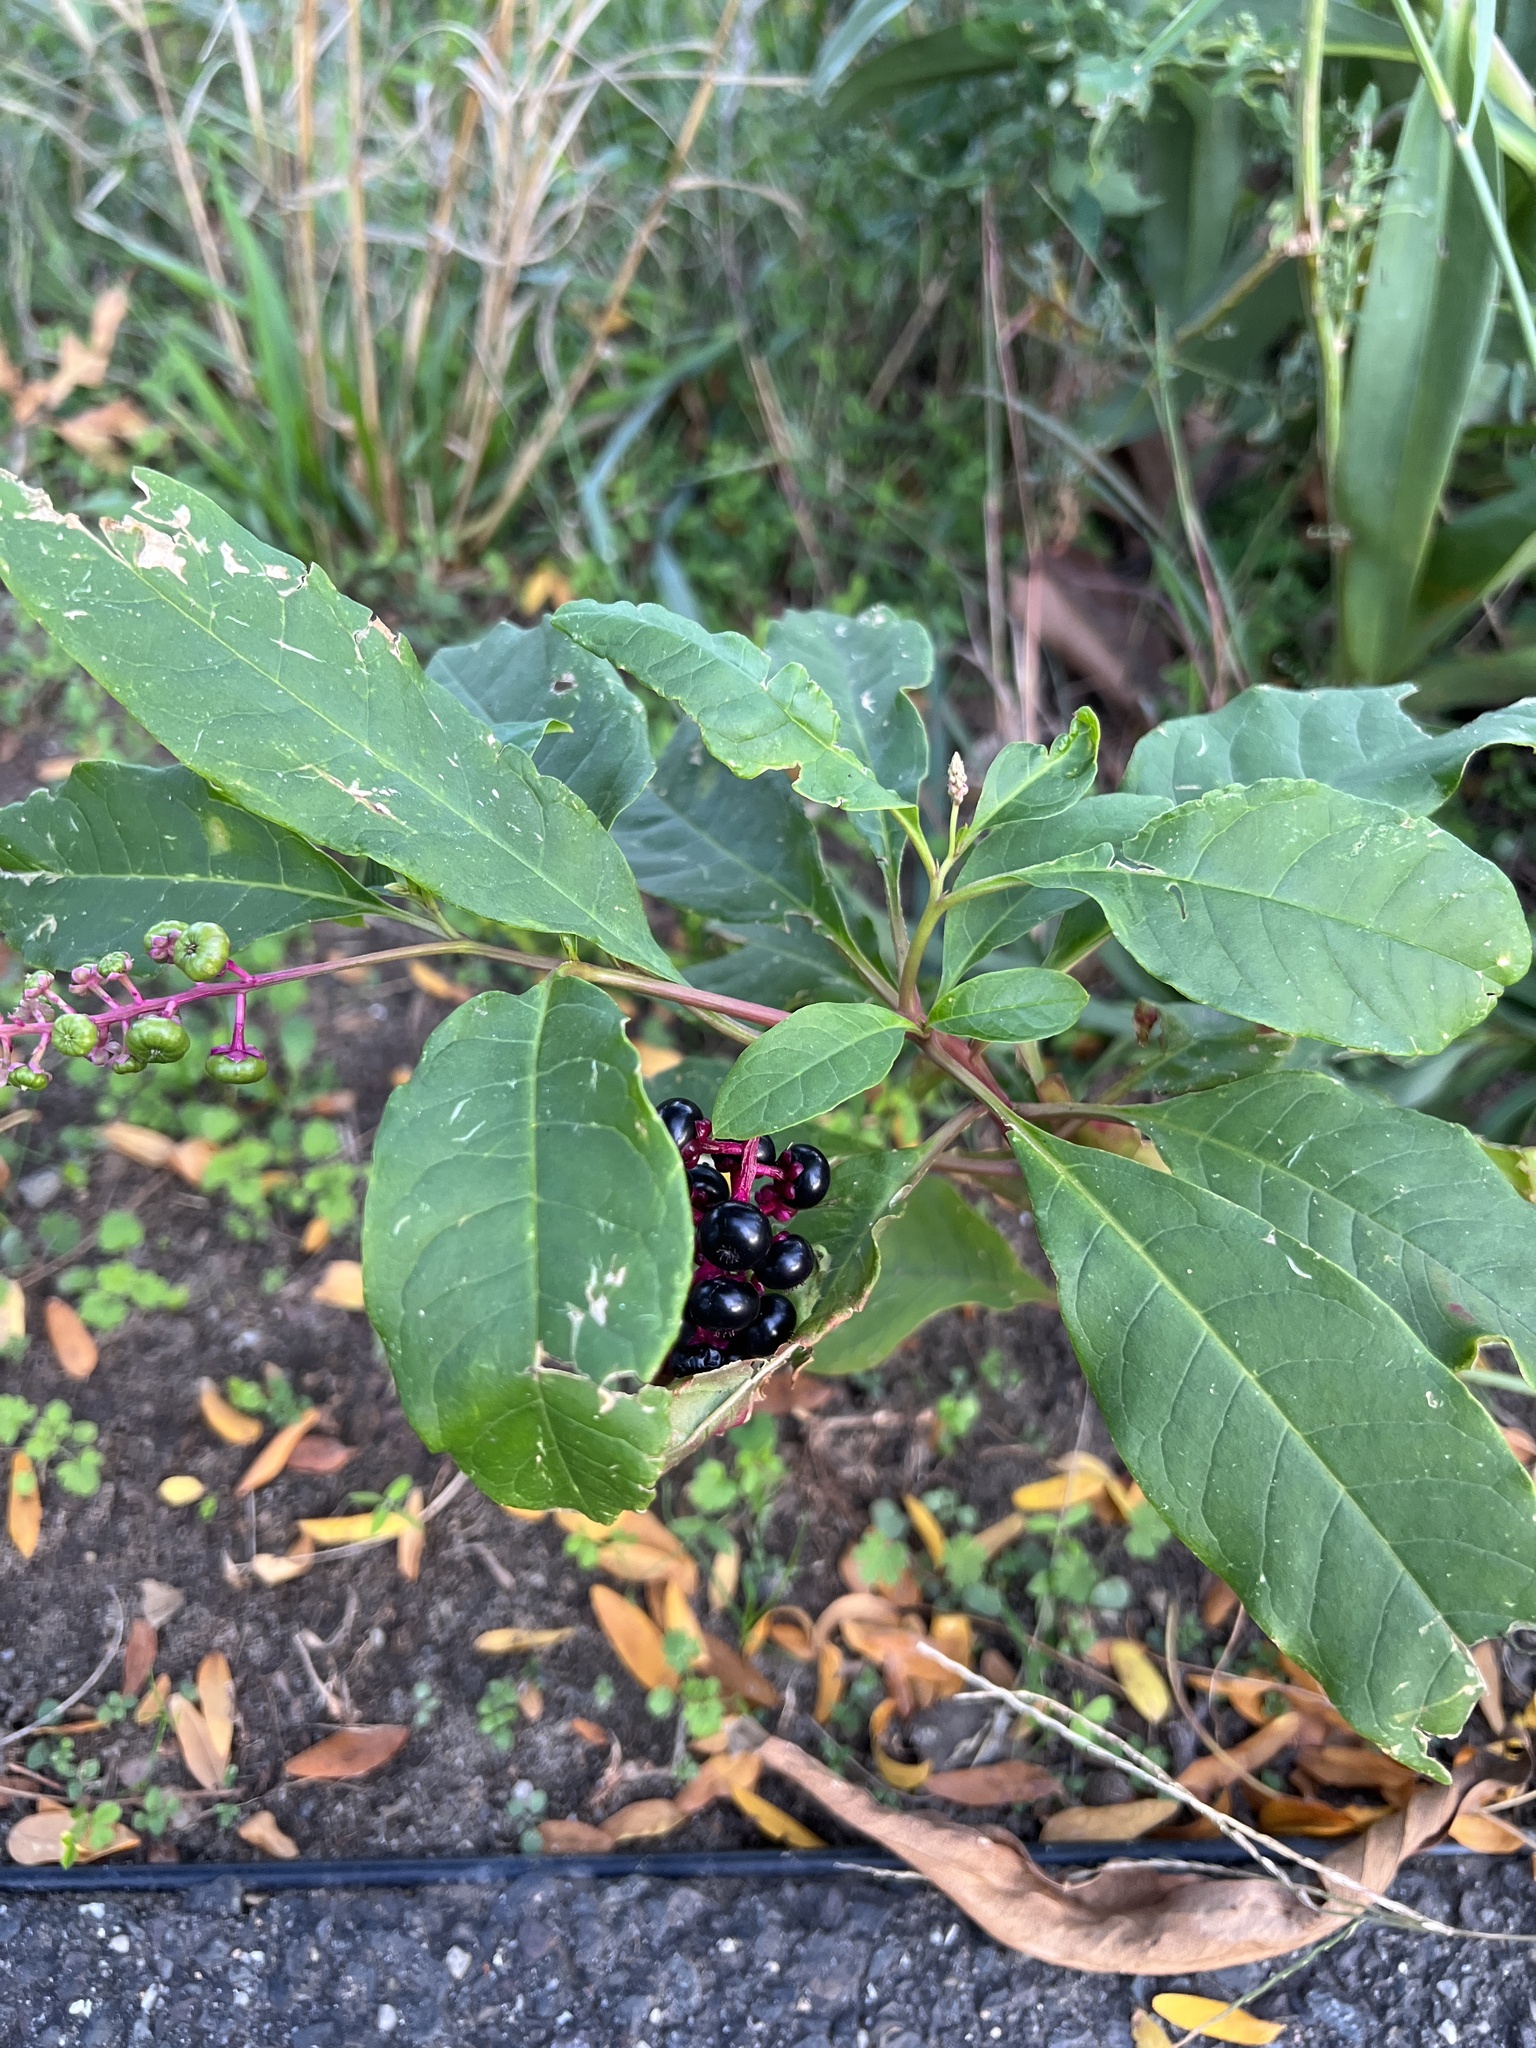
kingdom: Plantae
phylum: Tracheophyta
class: Magnoliopsida
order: Caryophyllales
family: Phytolaccaceae
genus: Phytolacca
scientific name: Phytolacca americana
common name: American pokeweed
